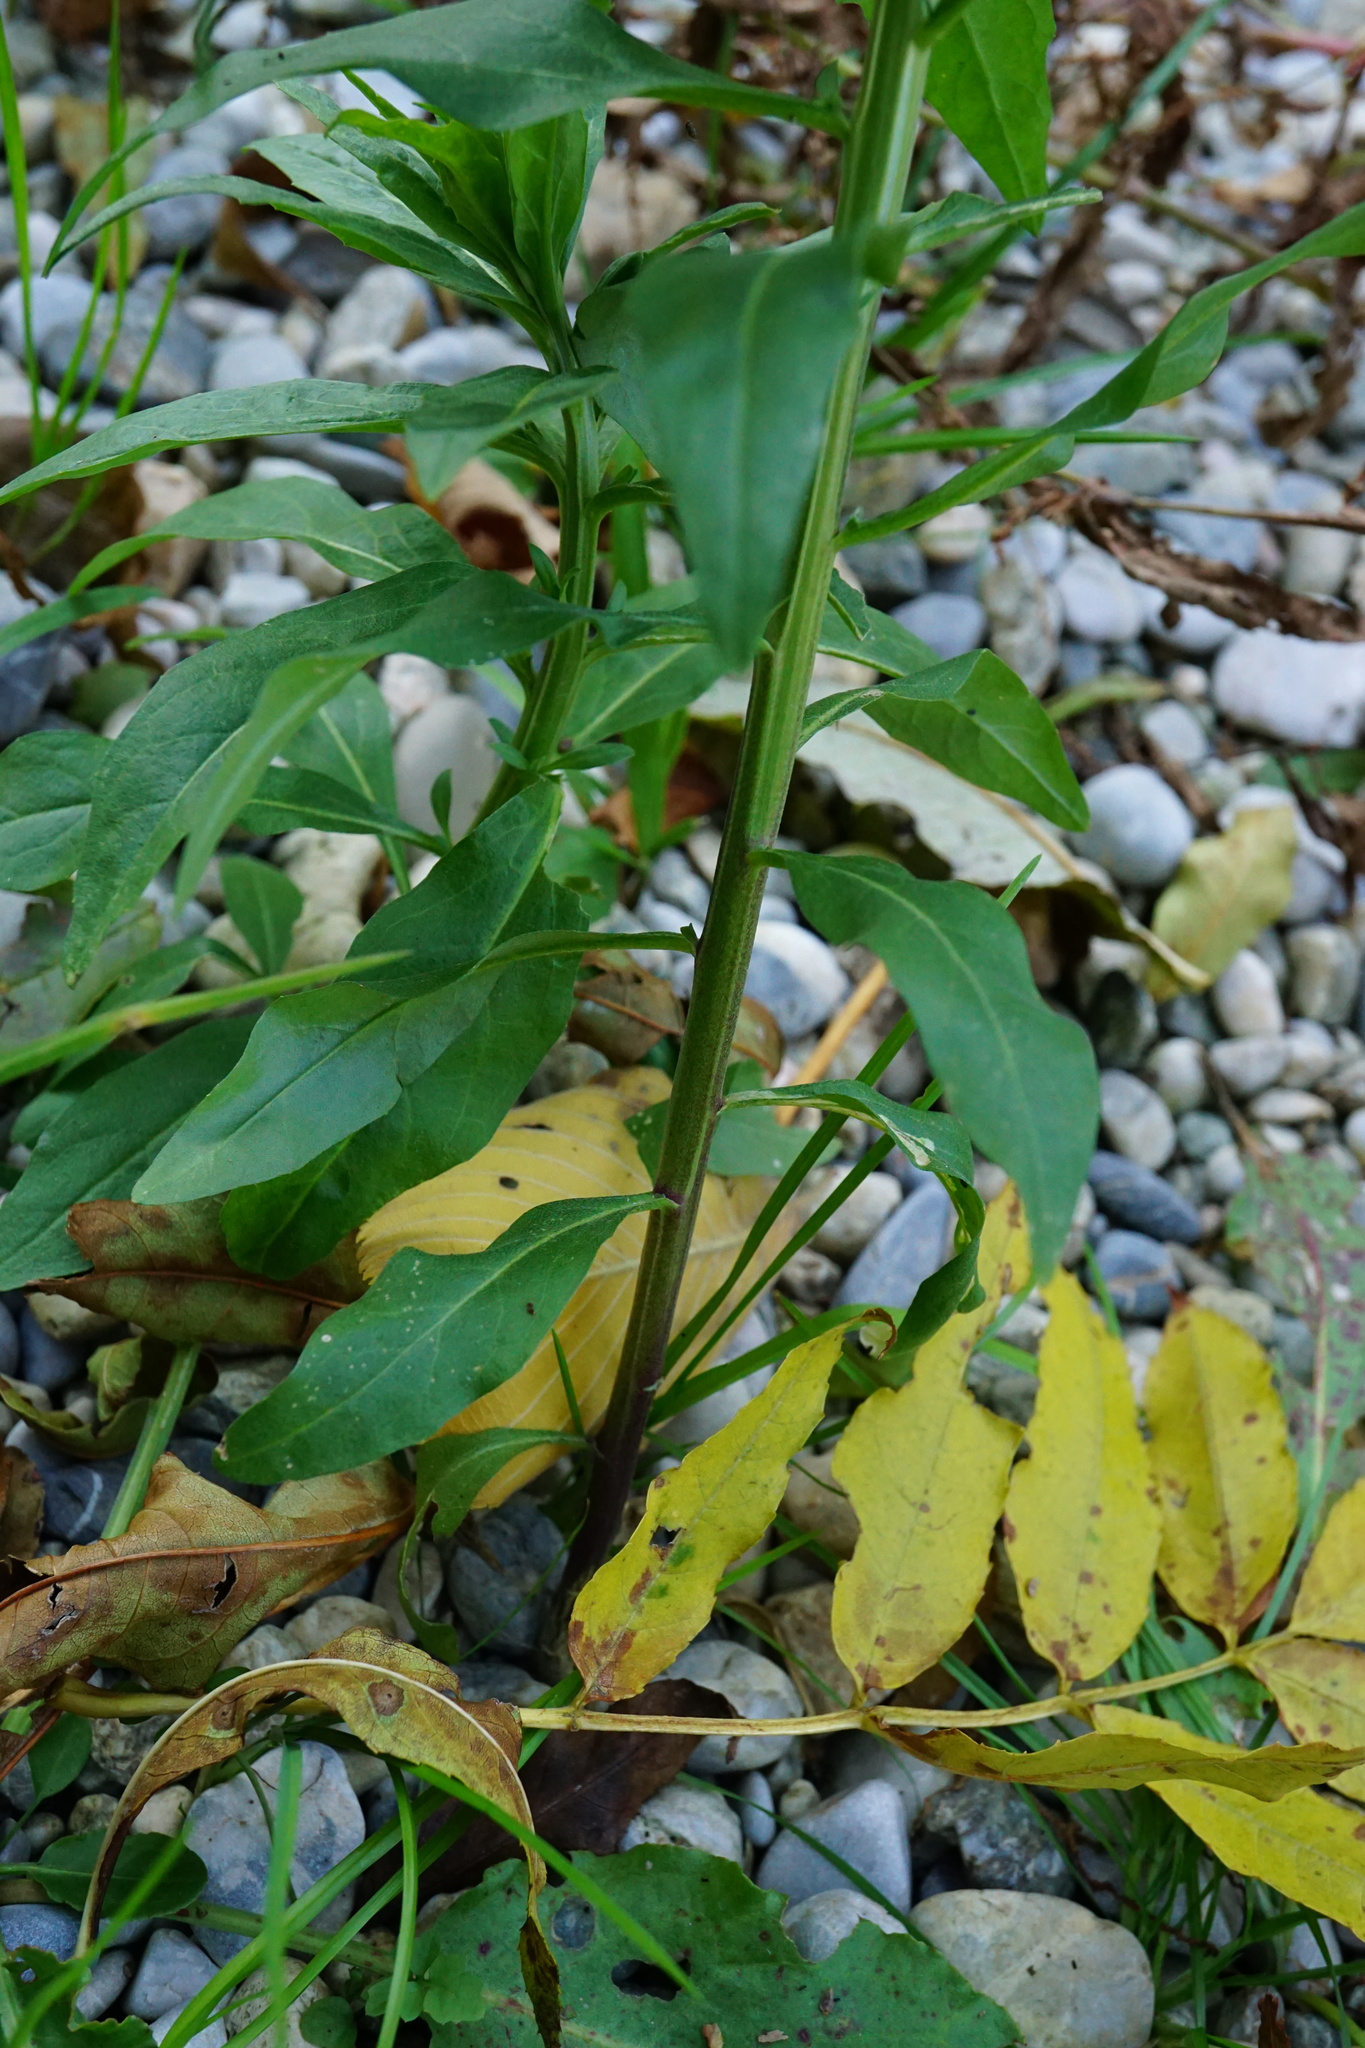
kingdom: Plantae
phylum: Tracheophyta
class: Magnoliopsida
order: Brassicales
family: Brassicaceae
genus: Erysimum
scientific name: Erysimum cheiranthoides
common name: Treacle mustard
